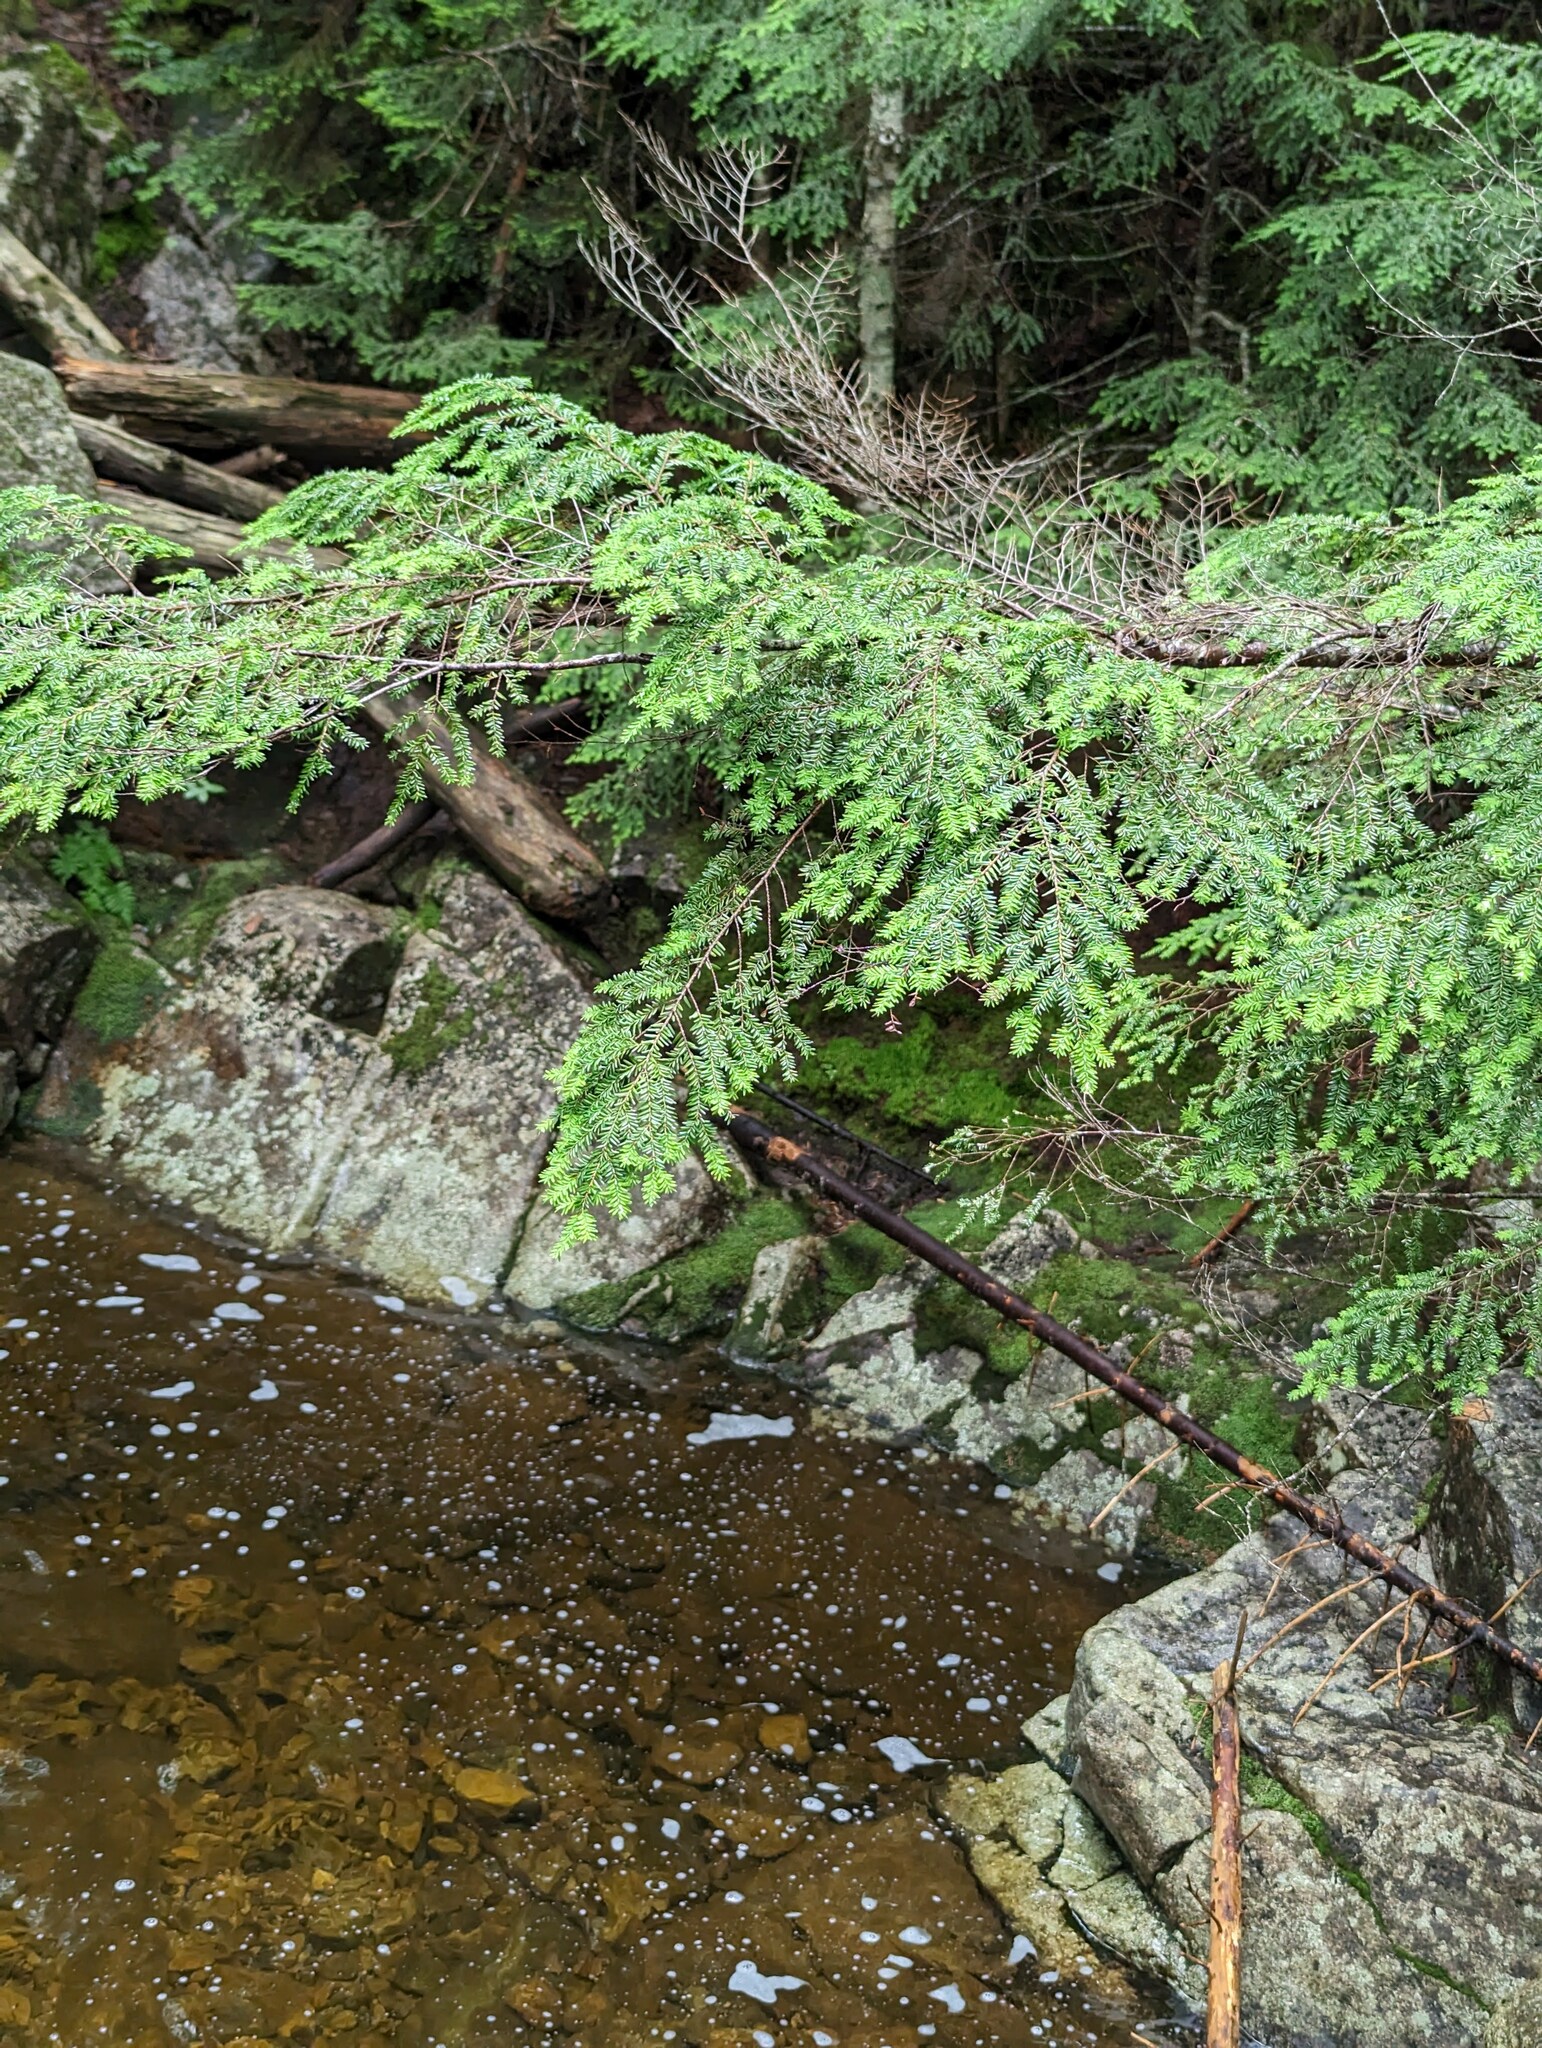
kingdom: Plantae
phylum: Tracheophyta
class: Pinopsida
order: Pinales
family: Pinaceae
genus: Tsuga
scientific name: Tsuga canadensis
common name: Eastern hemlock
